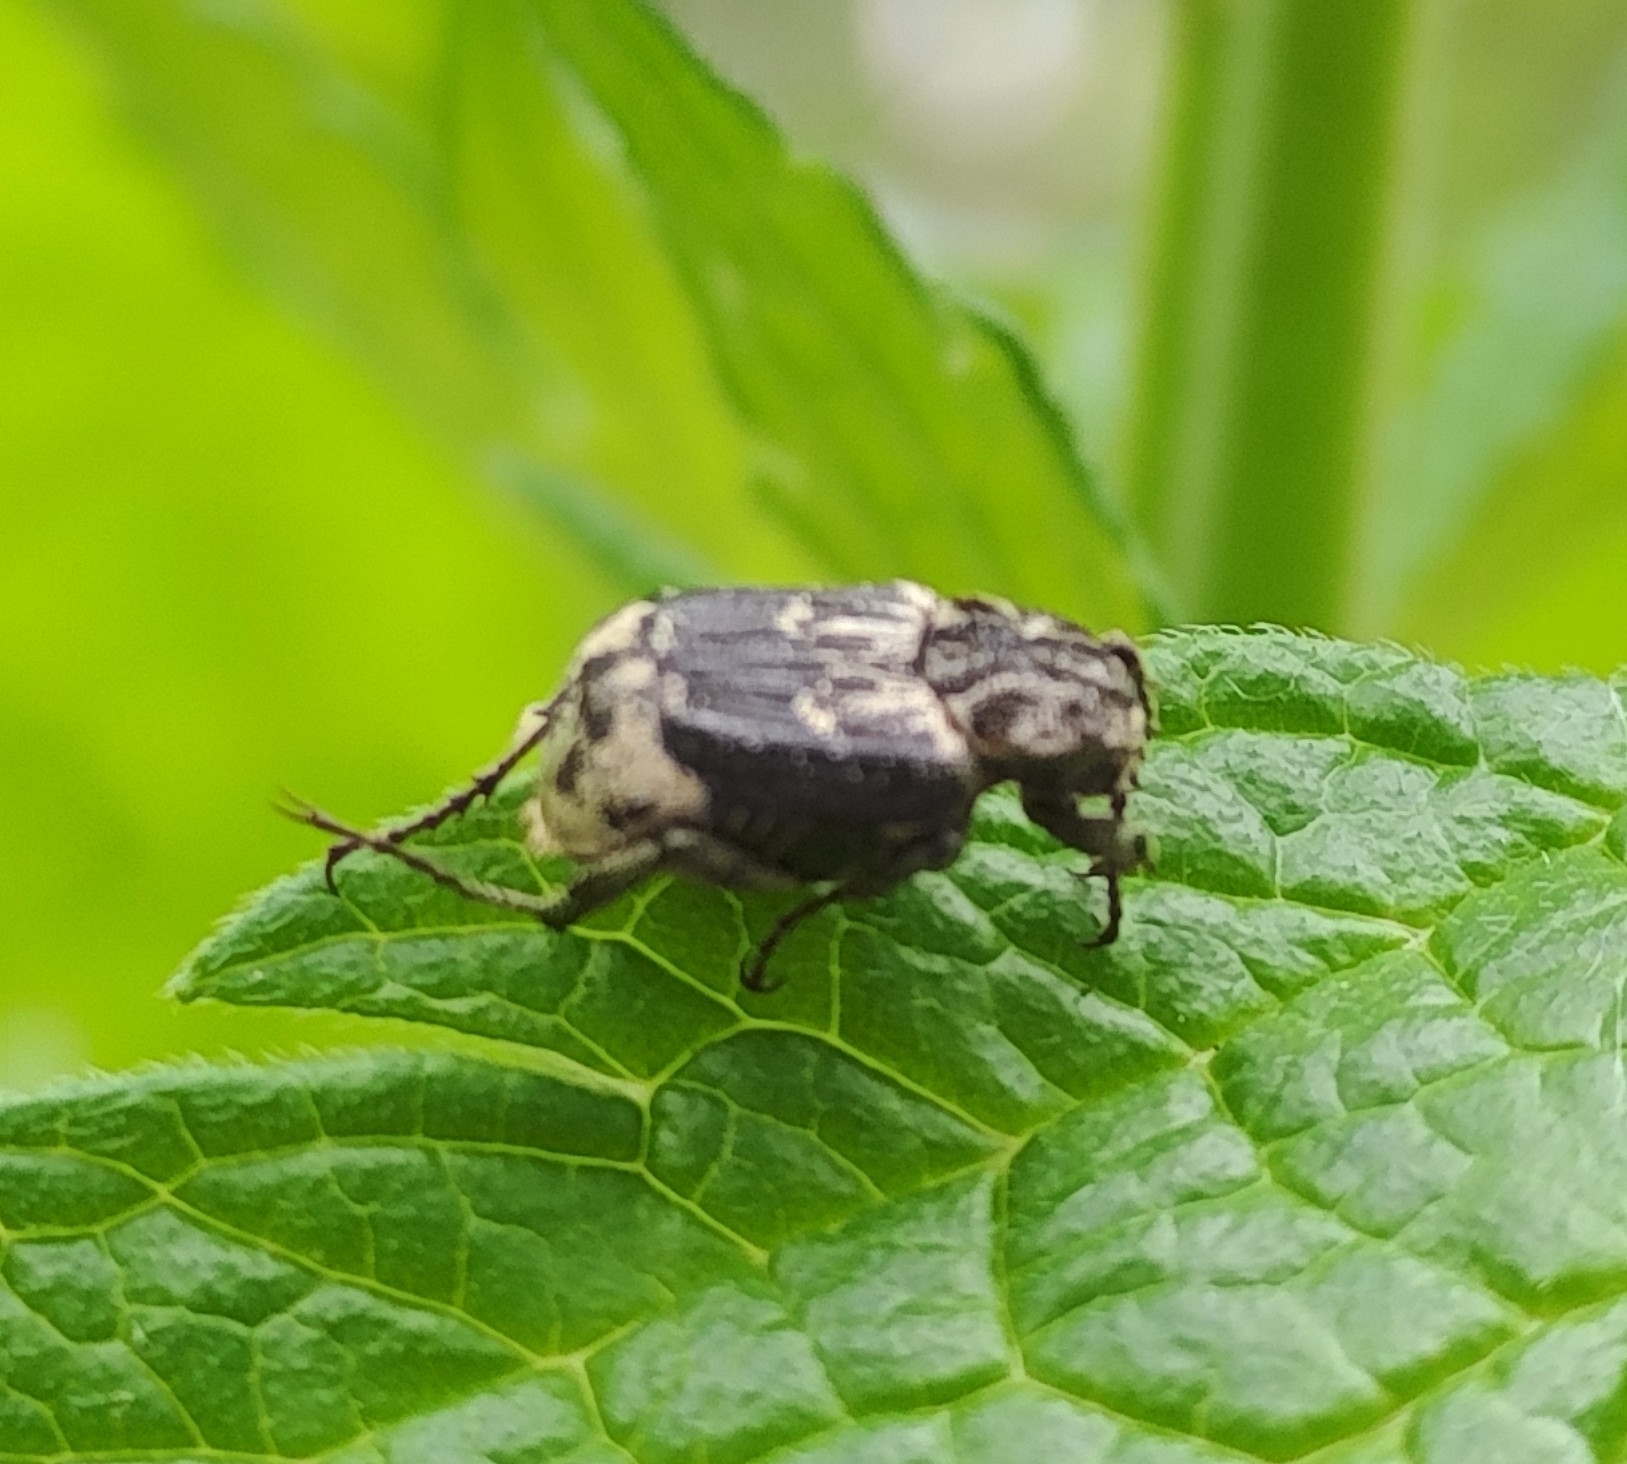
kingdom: Animalia
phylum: Arthropoda
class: Insecta
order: Coleoptera
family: Scarabaeidae
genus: Valgus
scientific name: Valgus hemipterus
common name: Bug flower chafer
